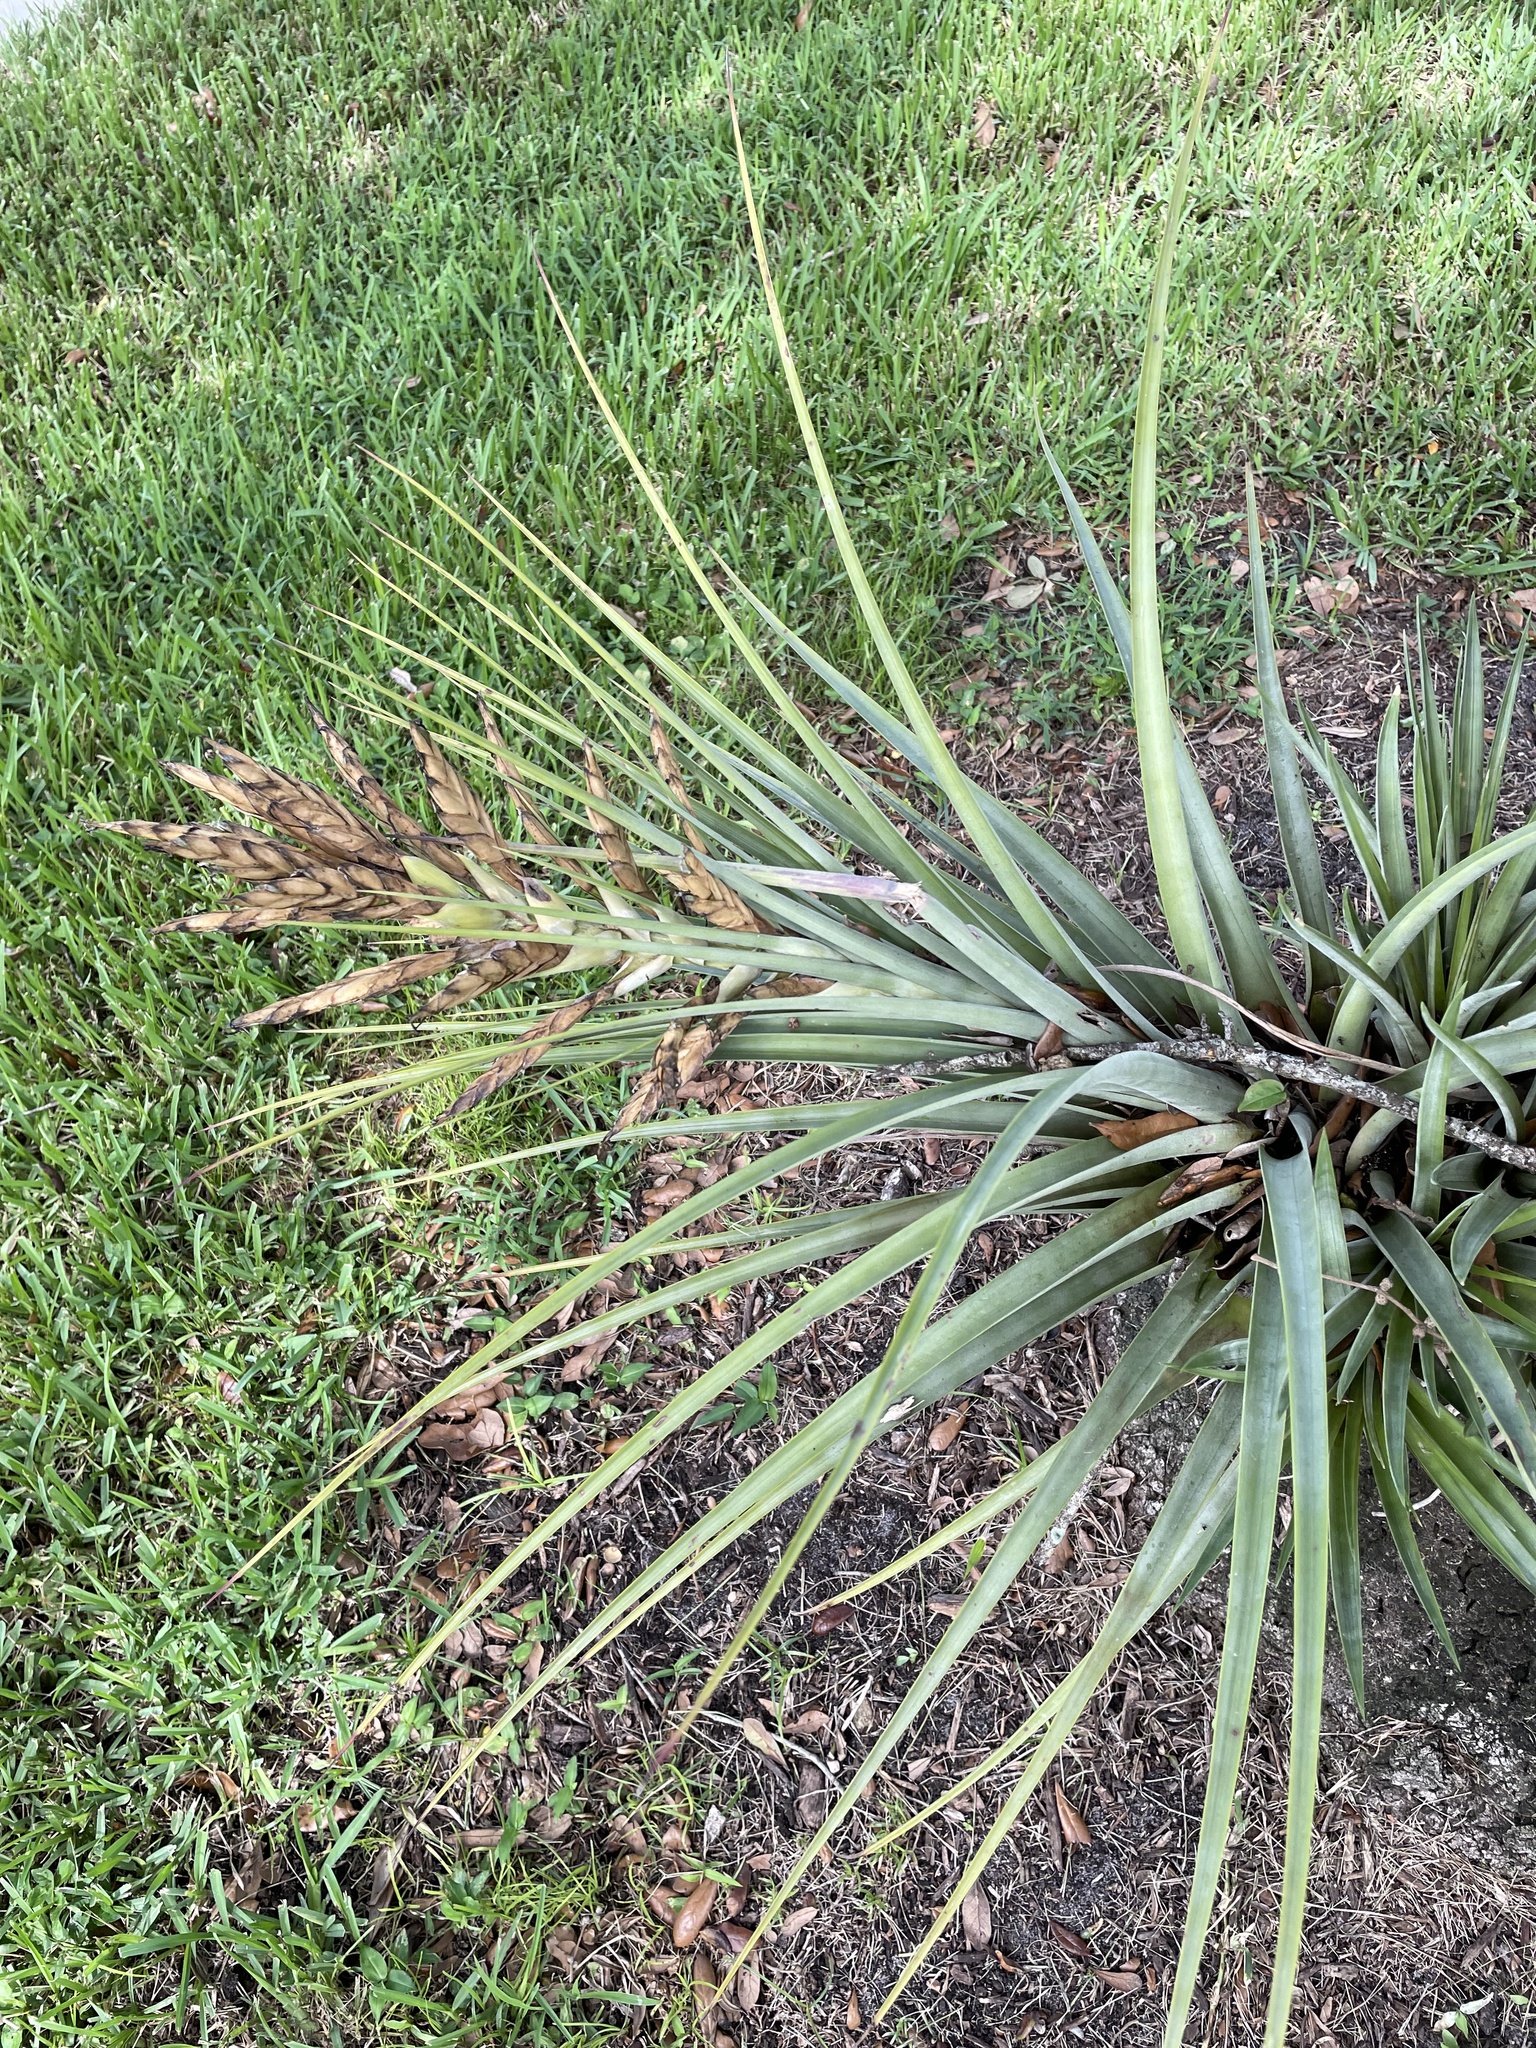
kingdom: Plantae
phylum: Tracheophyta
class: Liliopsida
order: Poales
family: Bromeliaceae
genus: Tillandsia
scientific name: Tillandsia fasciculata
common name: Giant airplant
